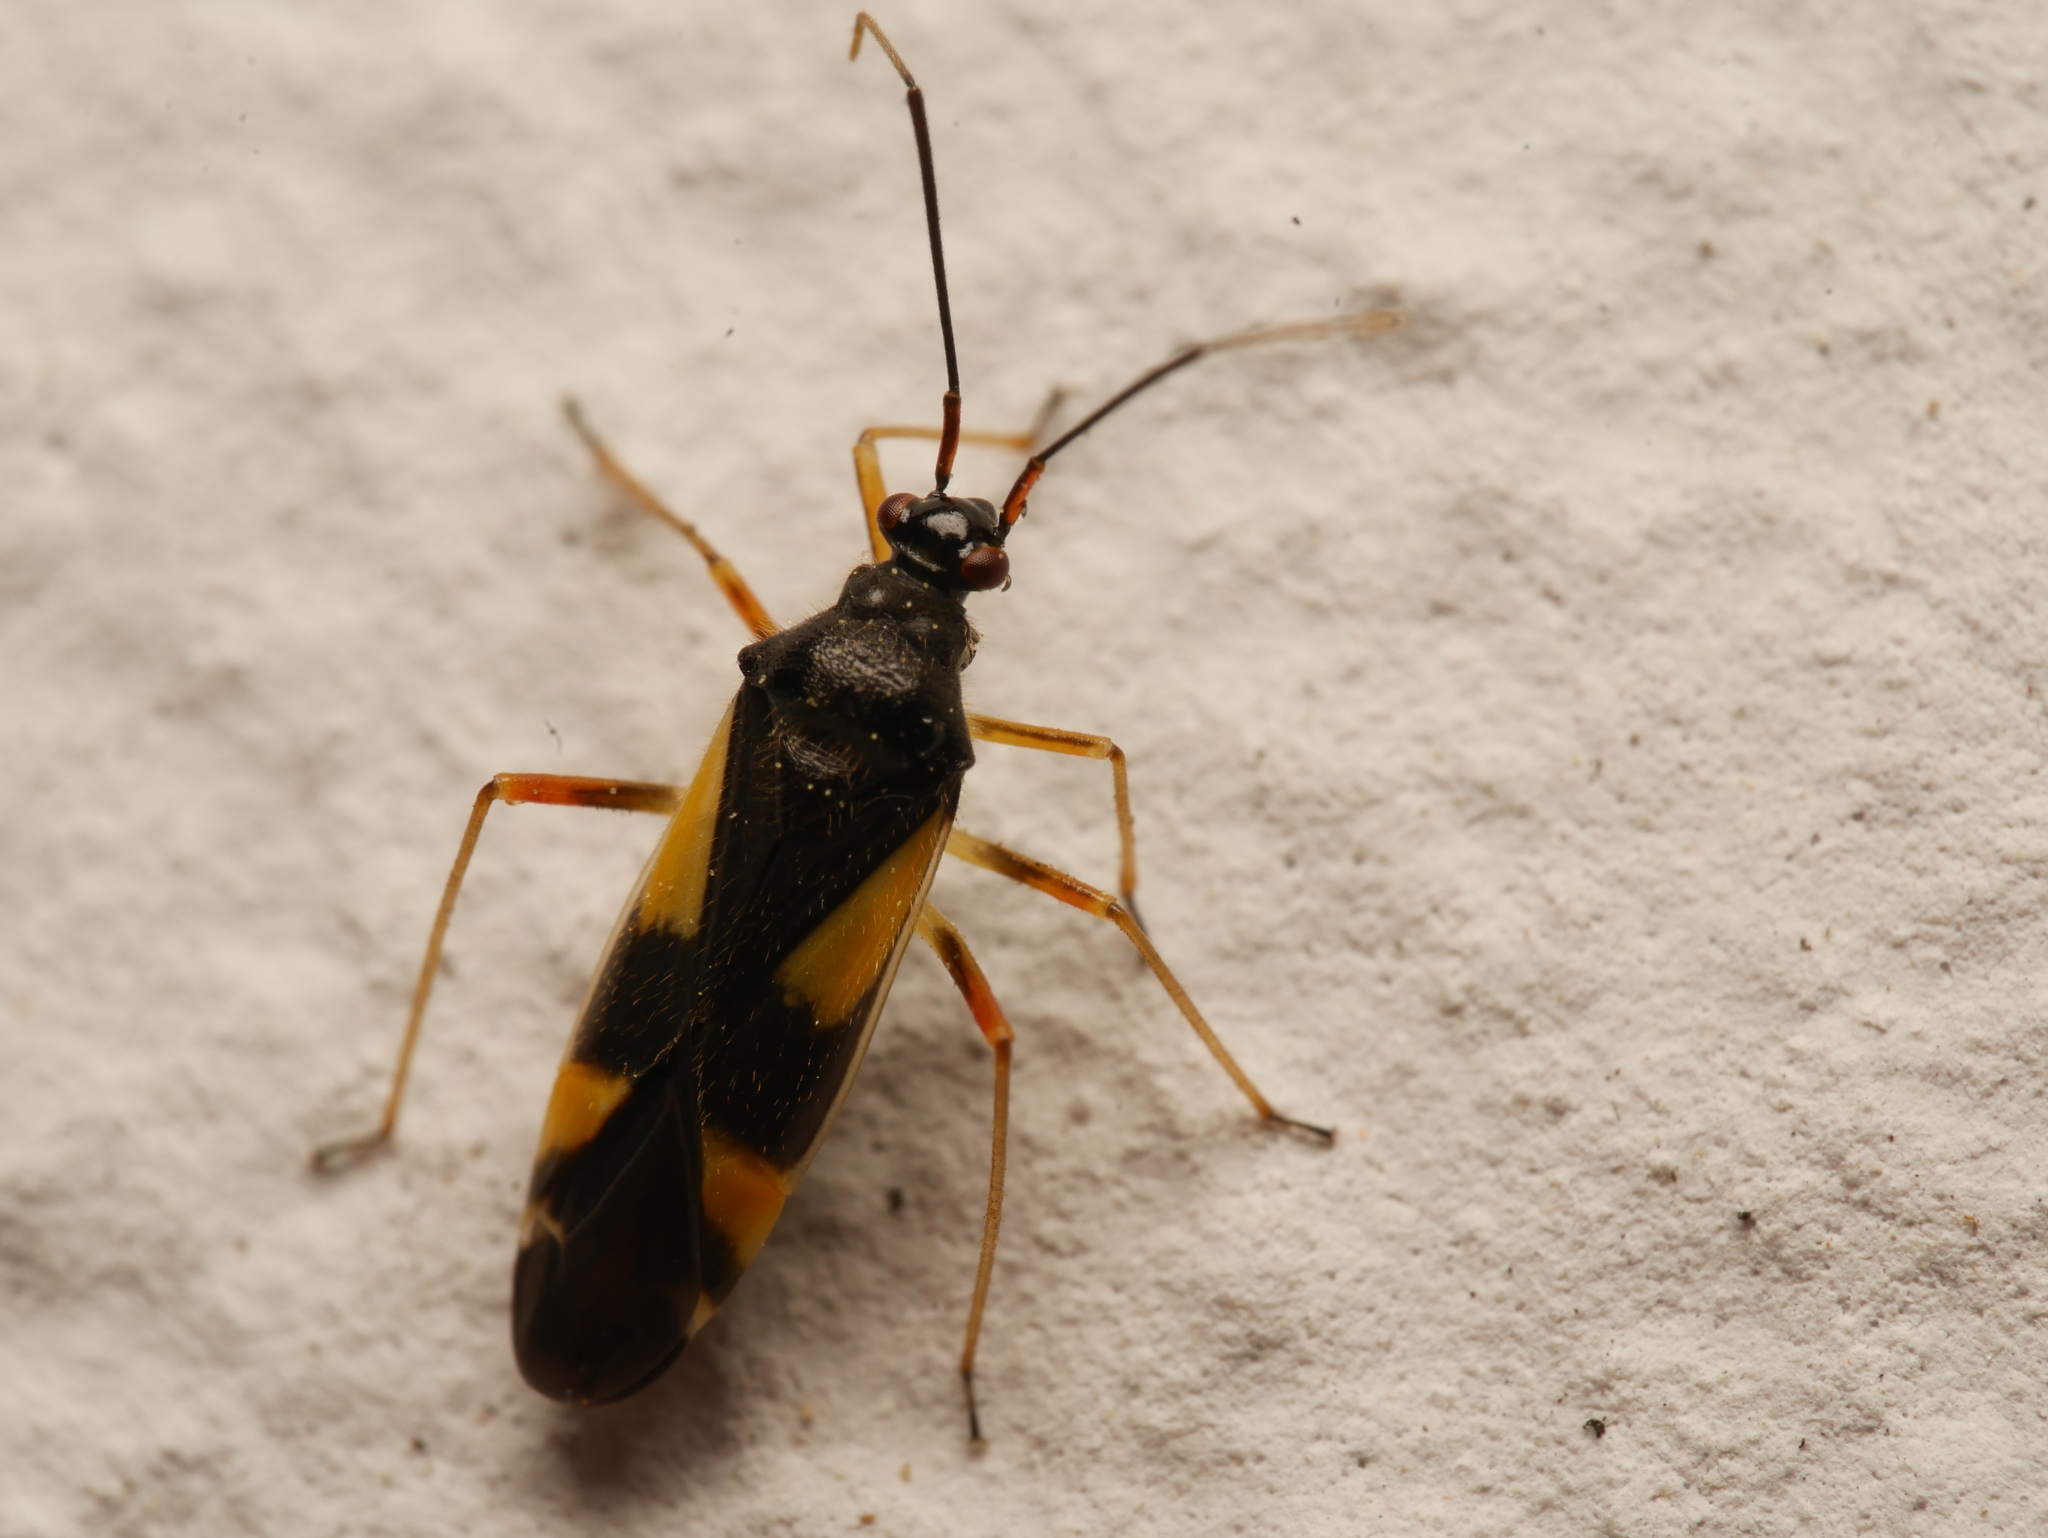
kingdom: Animalia
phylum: Arthropoda
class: Insecta
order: Hemiptera
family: Miridae
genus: Dryophilocoris
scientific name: Dryophilocoris flavoquadrimaculatus
